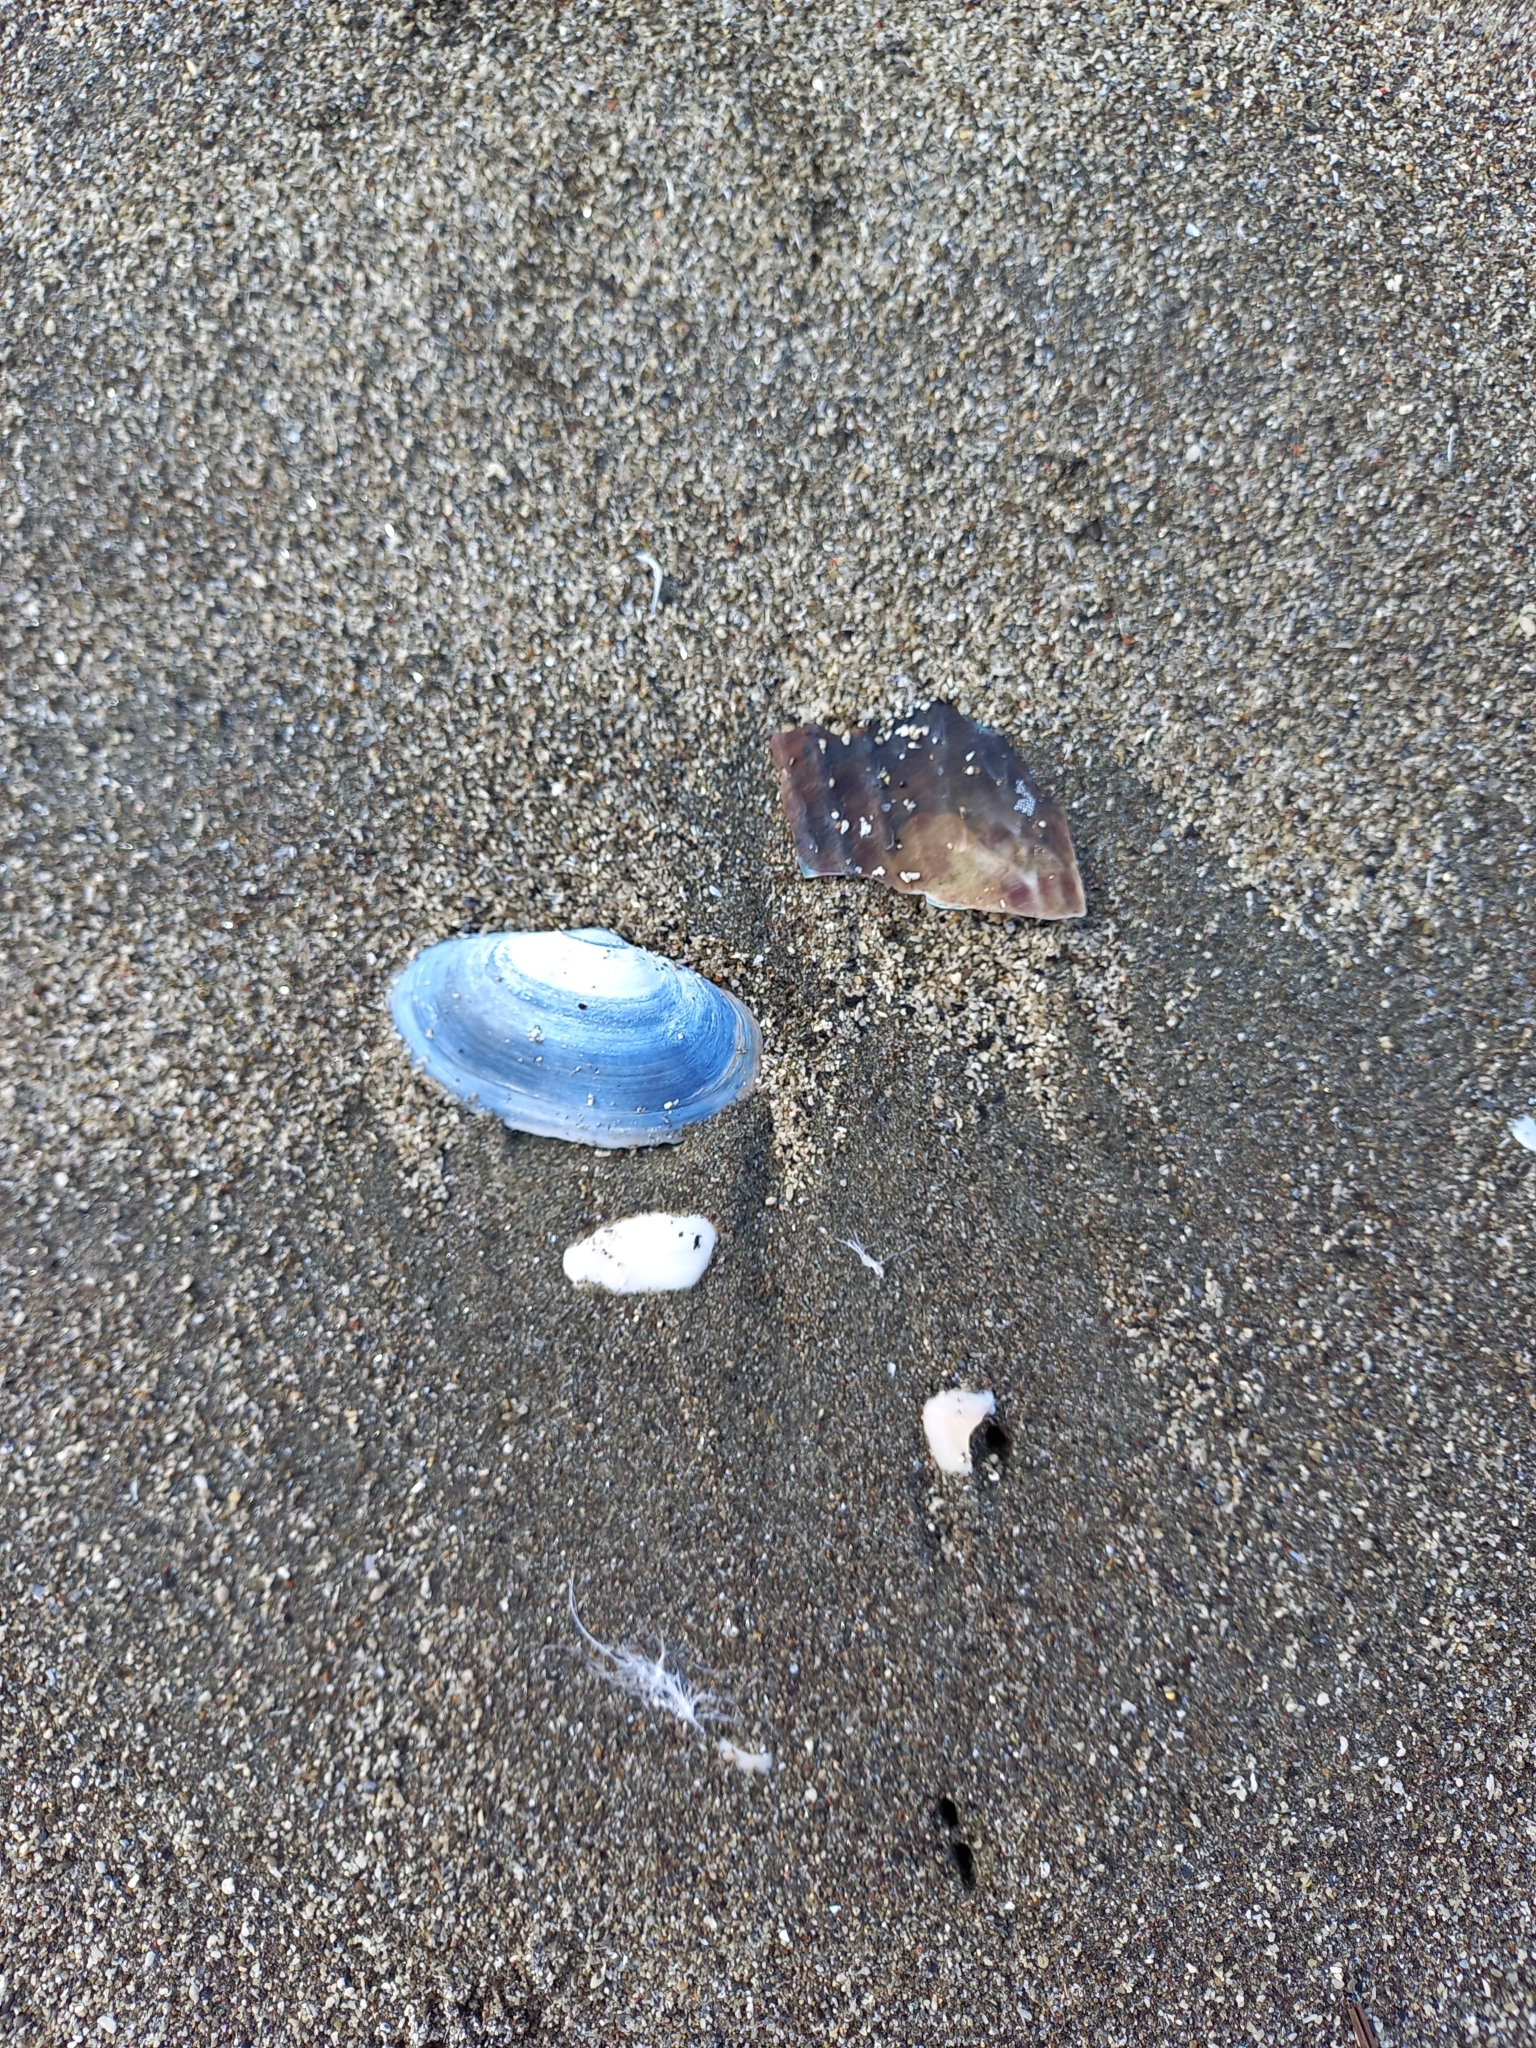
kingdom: Animalia
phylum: Mollusca
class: Bivalvia
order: Venerida
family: Mesodesmatidae
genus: Paphies
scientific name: Paphies australis
